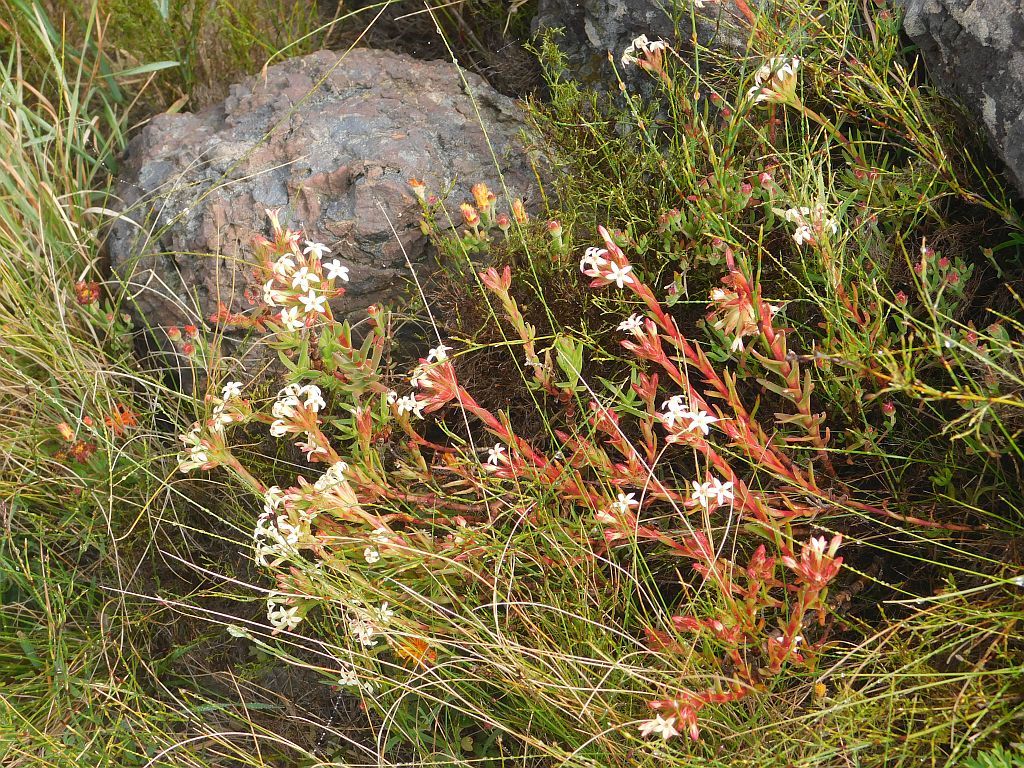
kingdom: Plantae
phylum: Tracheophyta
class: Magnoliopsida
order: Saxifragales
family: Crassulaceae
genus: Crassula
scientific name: Crassula fascicularis
